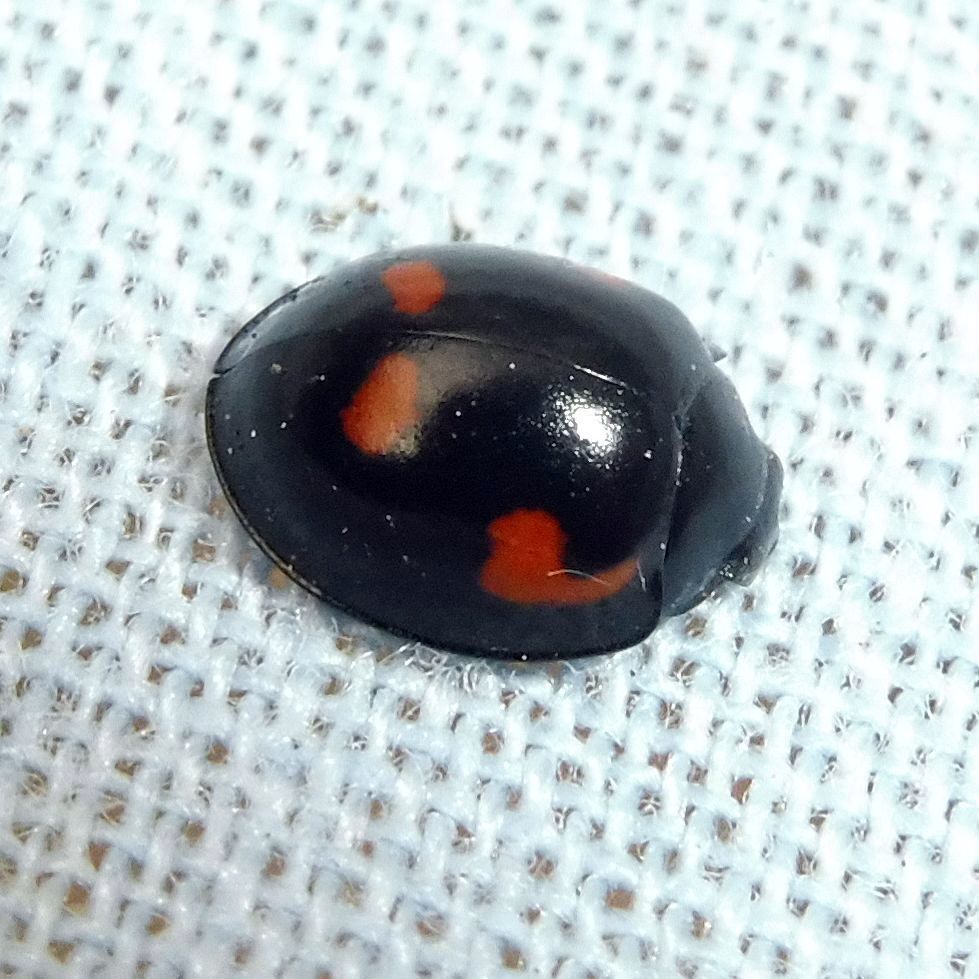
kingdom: Animalia
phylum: Arthropoda
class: Insecta
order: Coleoptera
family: Coccinellidae
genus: Brumus
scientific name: Brumus quadripustulatus
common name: Ladybird beetle
